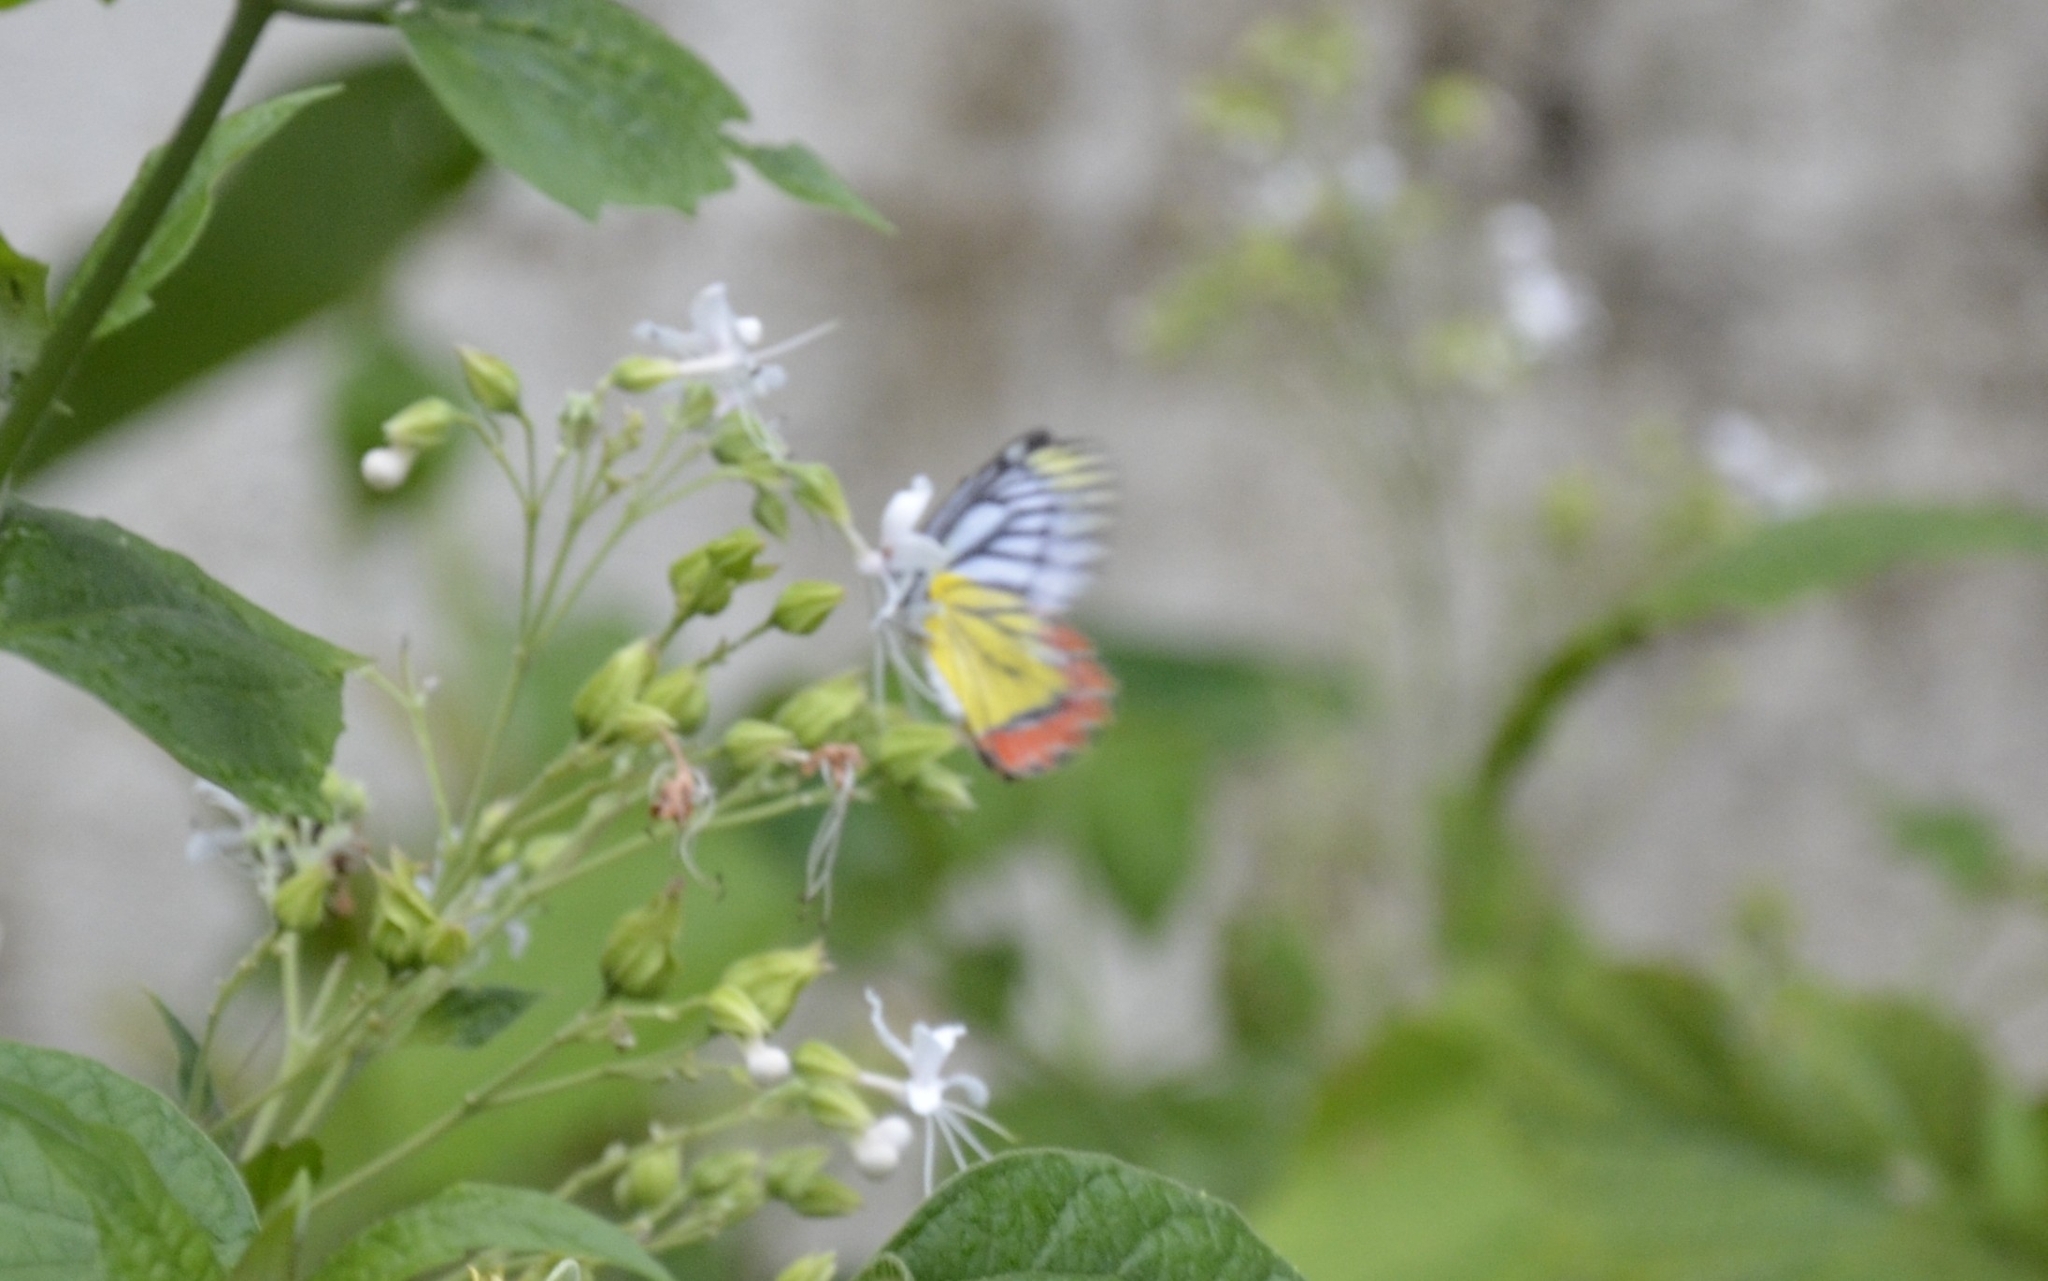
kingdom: Animalia
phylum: Arthropoda
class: Insecta
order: Lepidoptera
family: Pieridae
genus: Delias
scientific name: Delias eucharis
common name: Common jezebel
